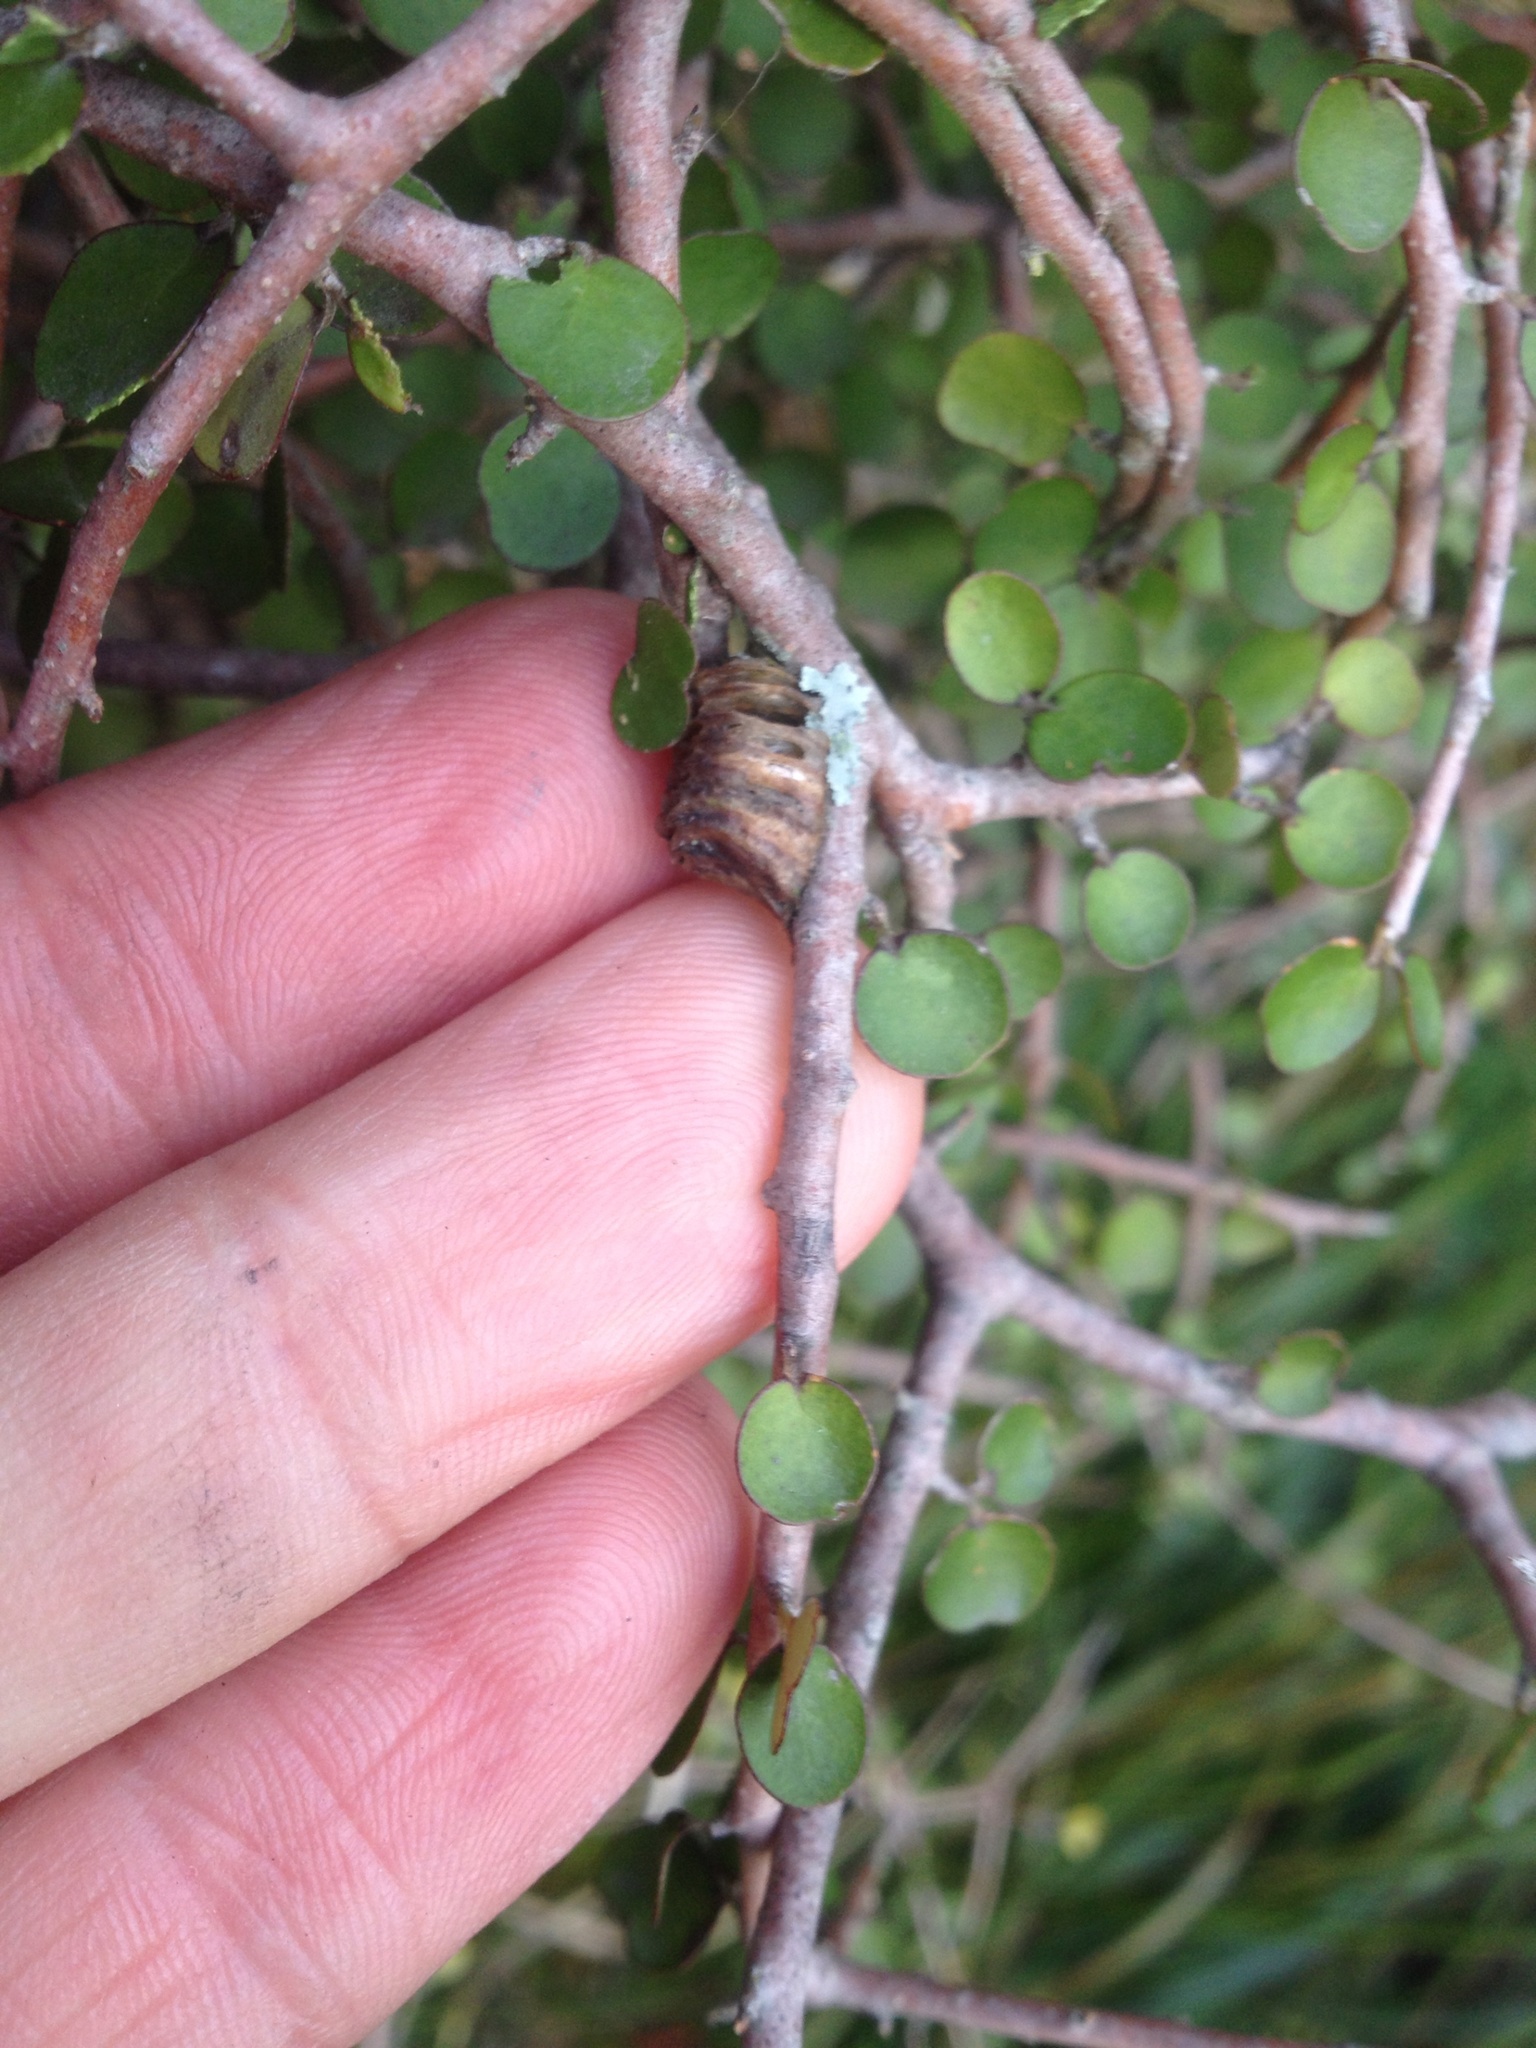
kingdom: Animalia
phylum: Arthropoda
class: Insecta
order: Mantodea
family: Mantidae
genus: Orthodera
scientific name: Orthodera novaezealandiae
